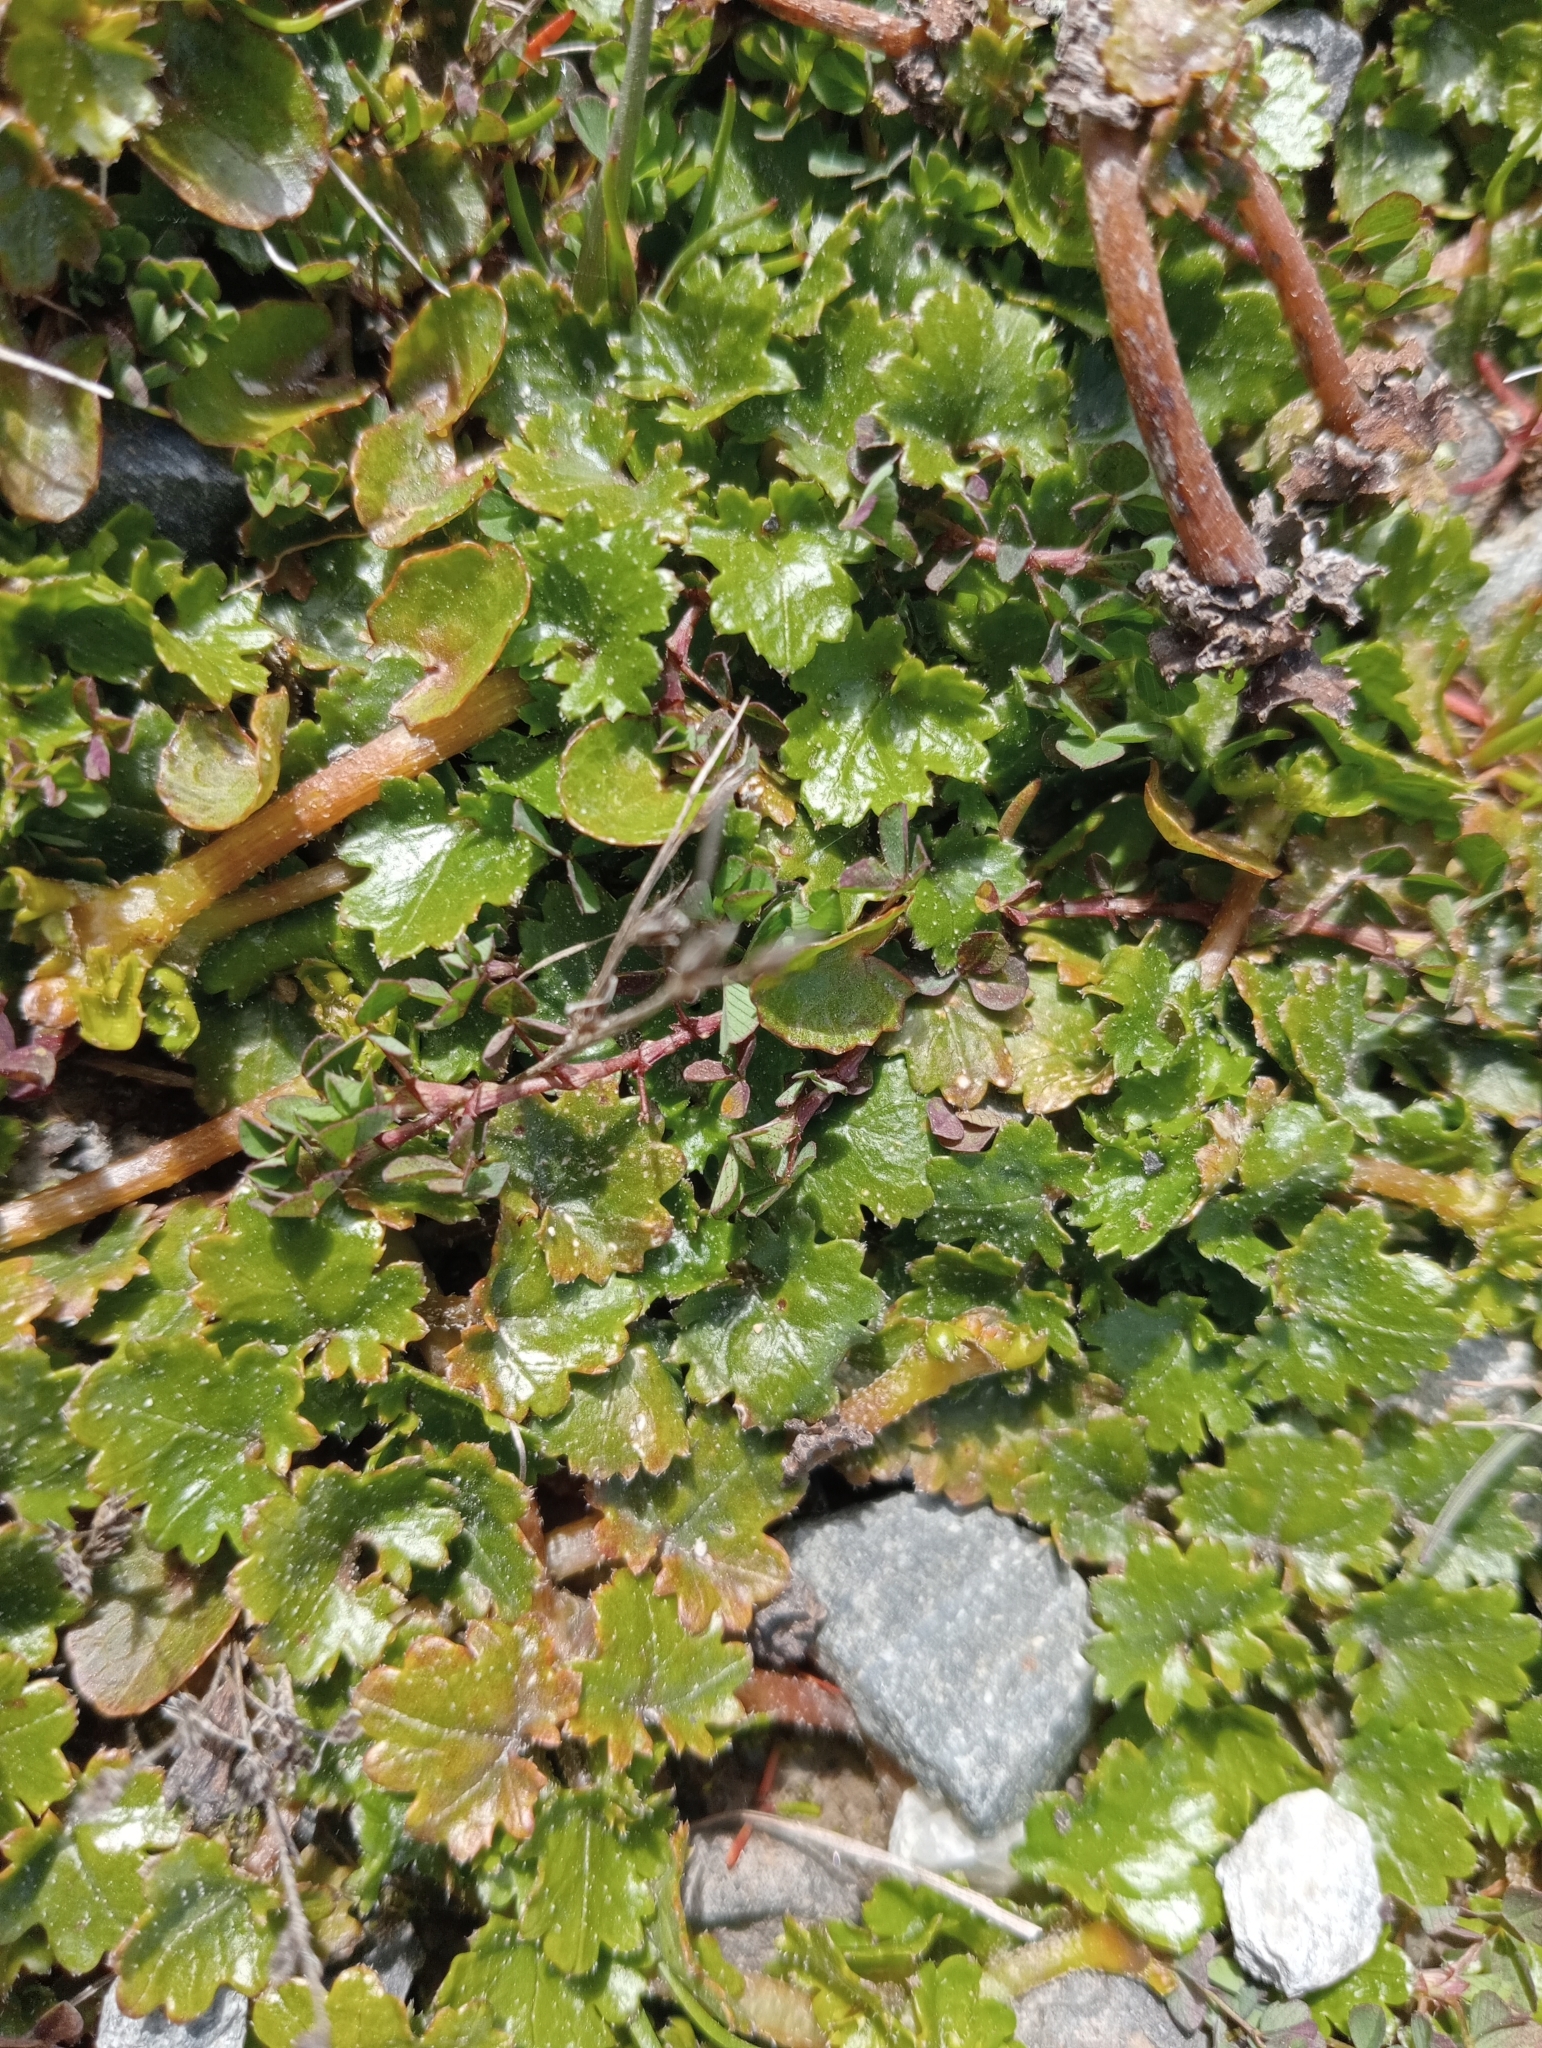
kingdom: Plantae
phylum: Tracheophyta
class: Magnoliopsida
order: Gunnerales
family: Gunneraceae
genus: Gunnera
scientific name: Gunnera monoica
